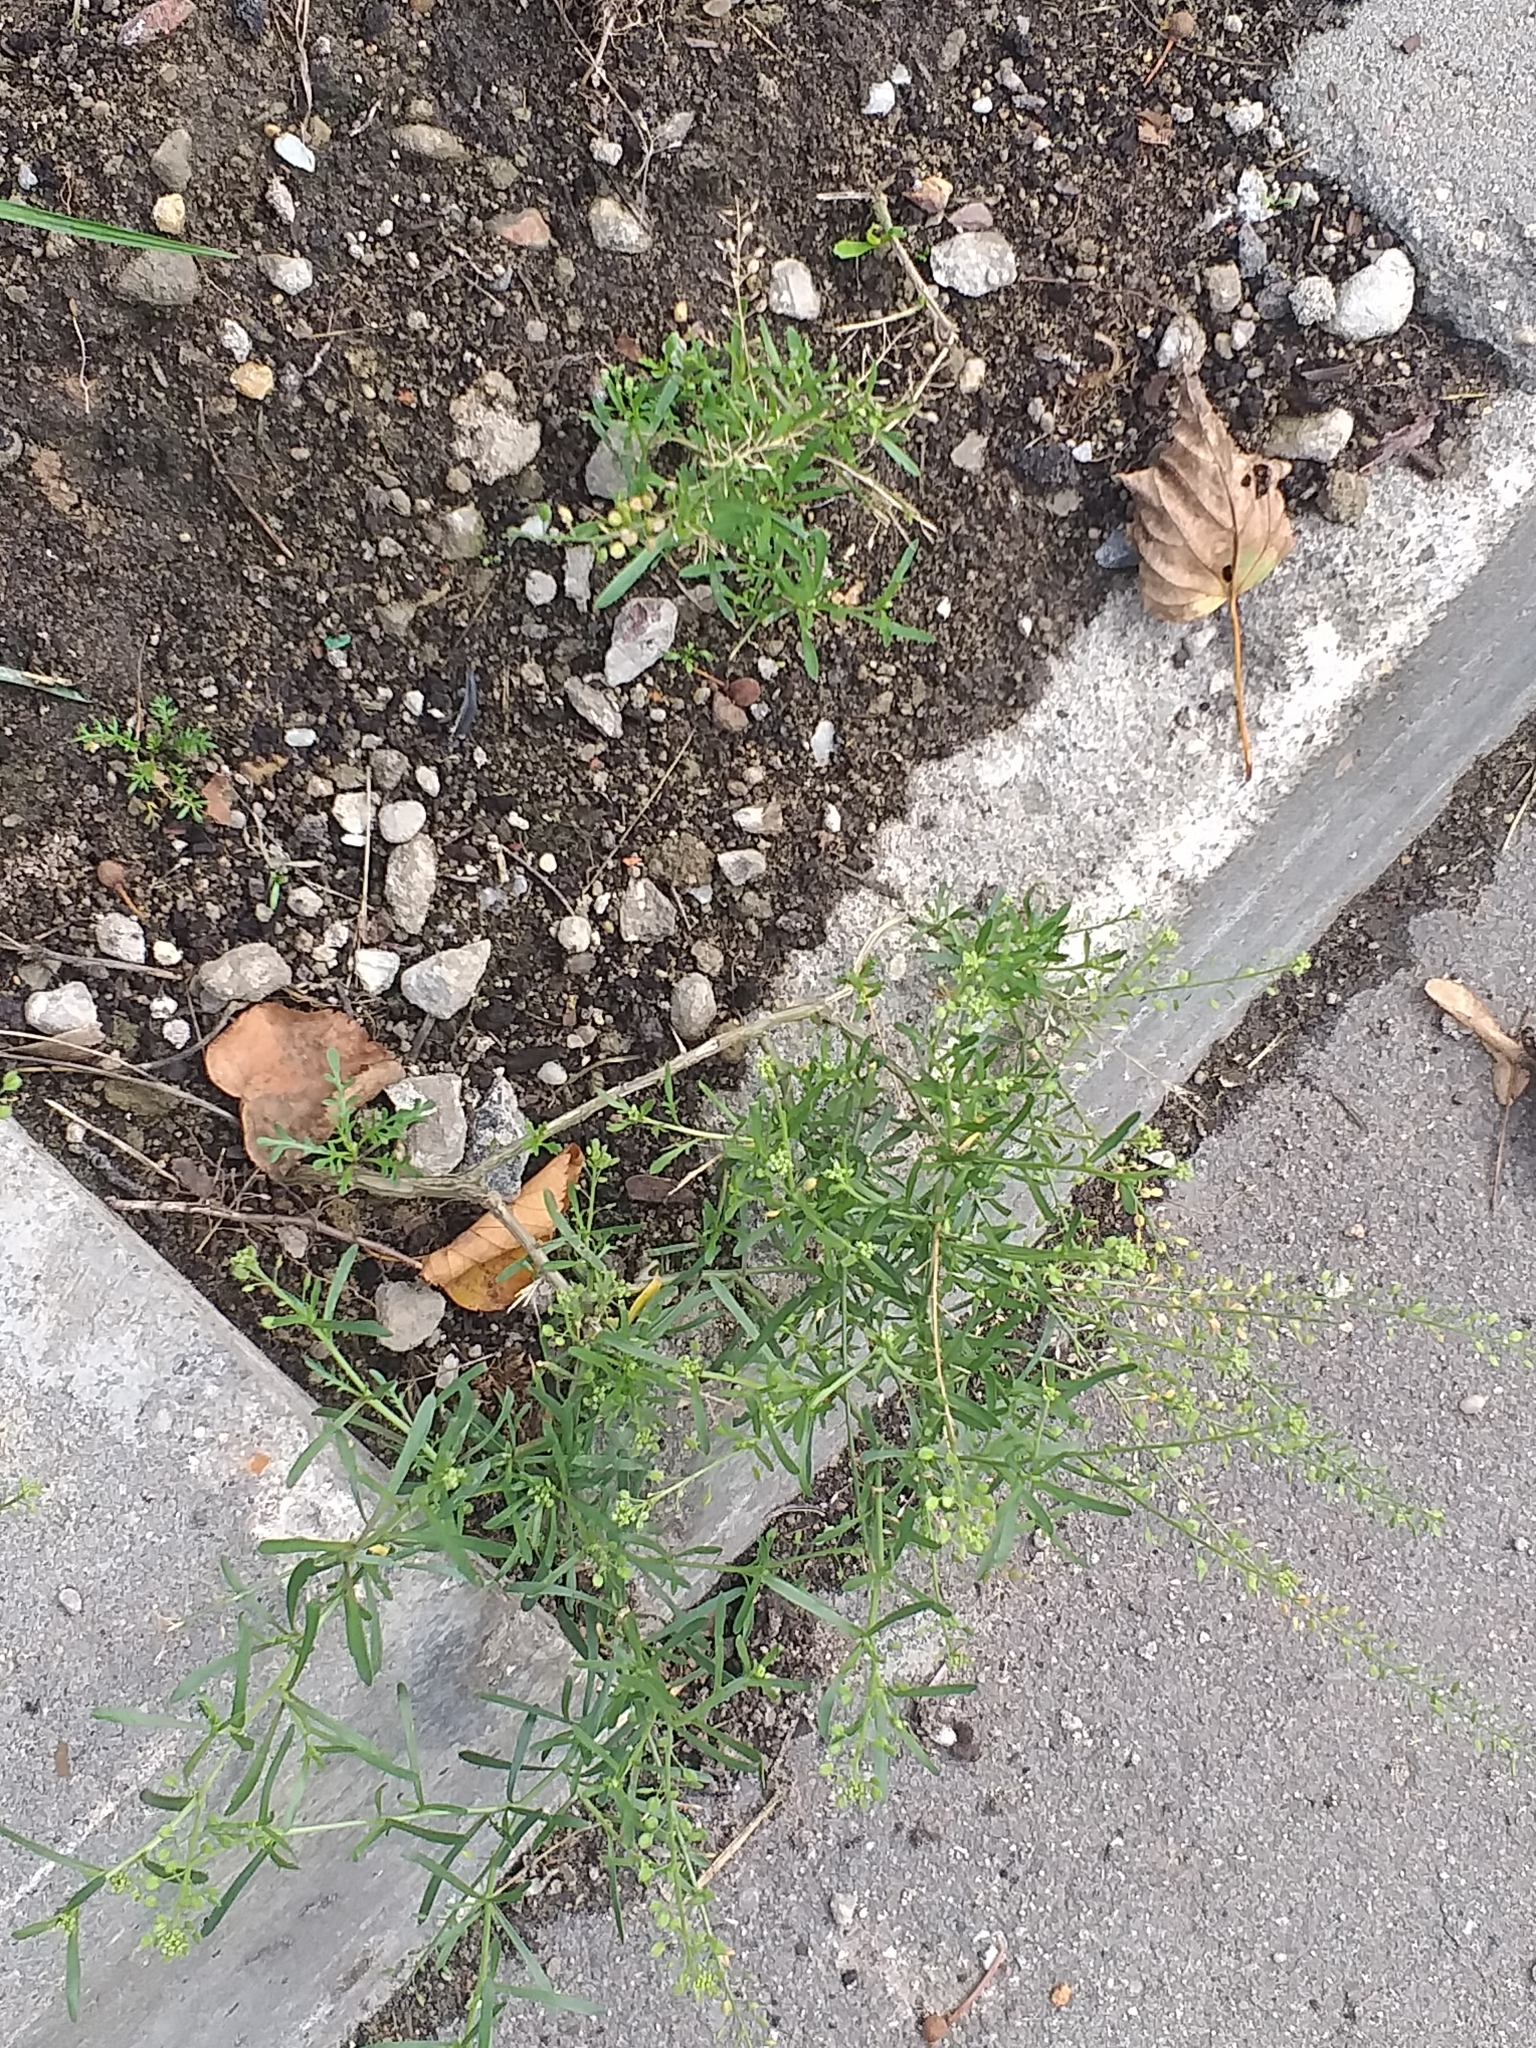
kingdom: Plantae
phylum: Tracheophyta
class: Magnoliopsida
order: Brassicales
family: Brassicaceae
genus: Lepidium
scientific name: Lepidium ruderale
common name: Narrow-leaved pepperwort
